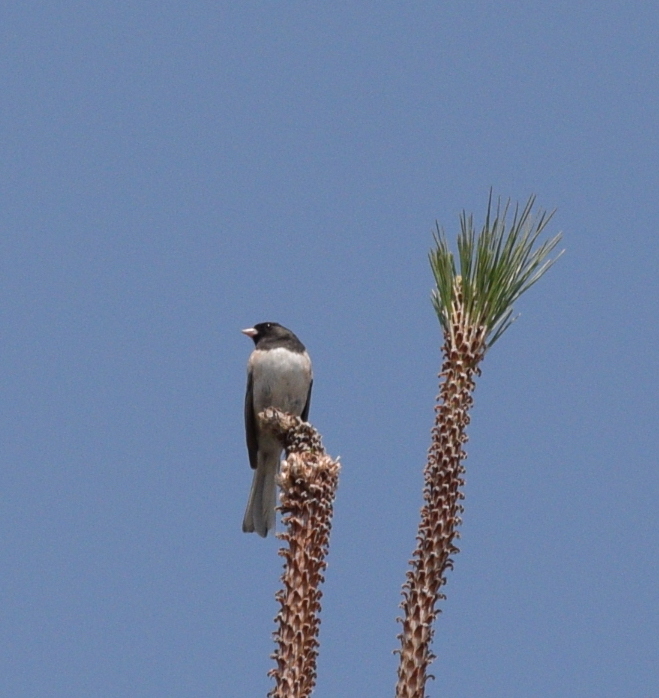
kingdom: Animalia
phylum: Chordata
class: Aves
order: Passeriformes
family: Passerellidae
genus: Junco
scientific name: Junco hyemalis
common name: Dark-eyed junco
